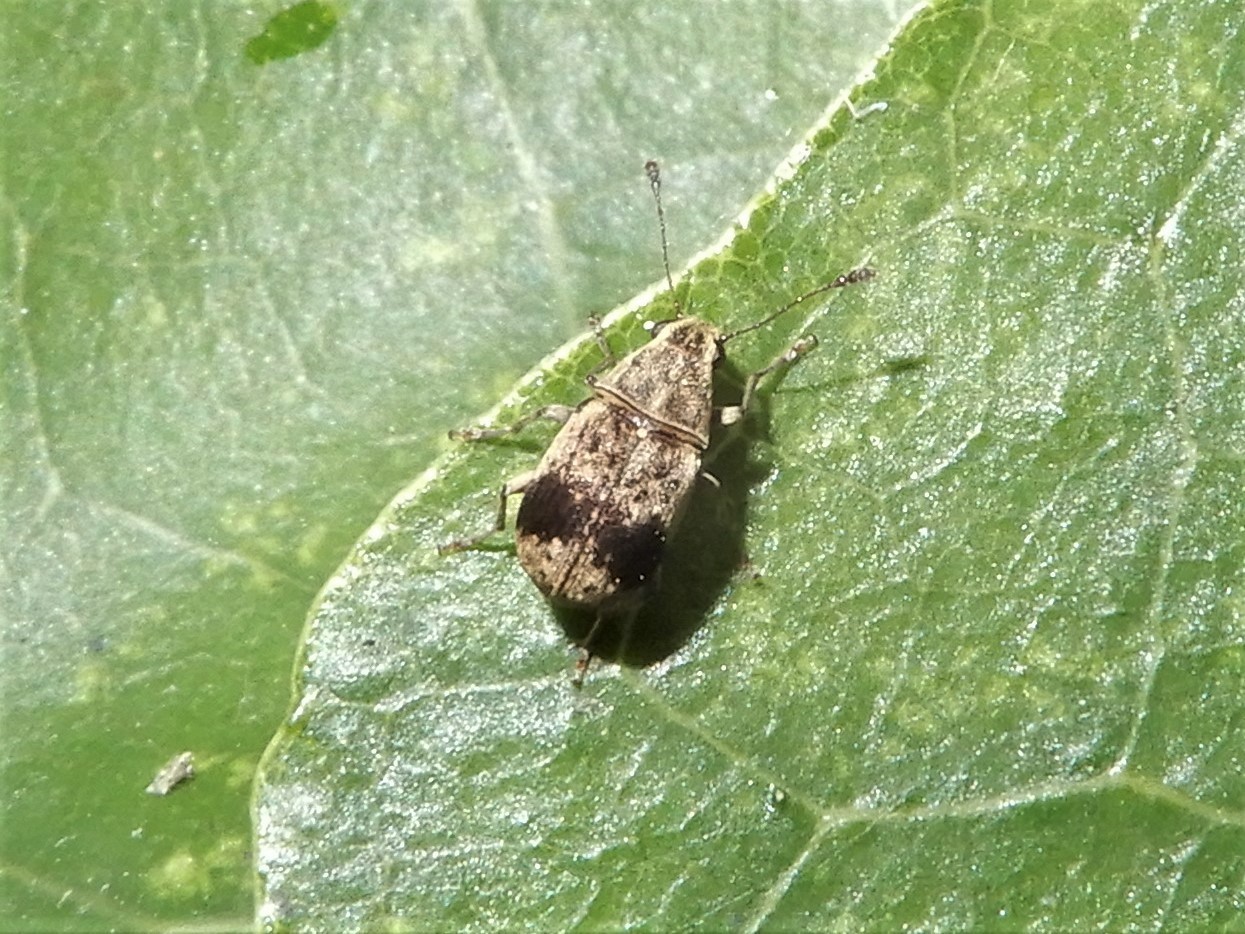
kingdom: Animalia
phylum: Arthropoda
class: Insecta
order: Coleoptera
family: Anthribidae
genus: Cacephatus
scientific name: Cacephatus huttoni
